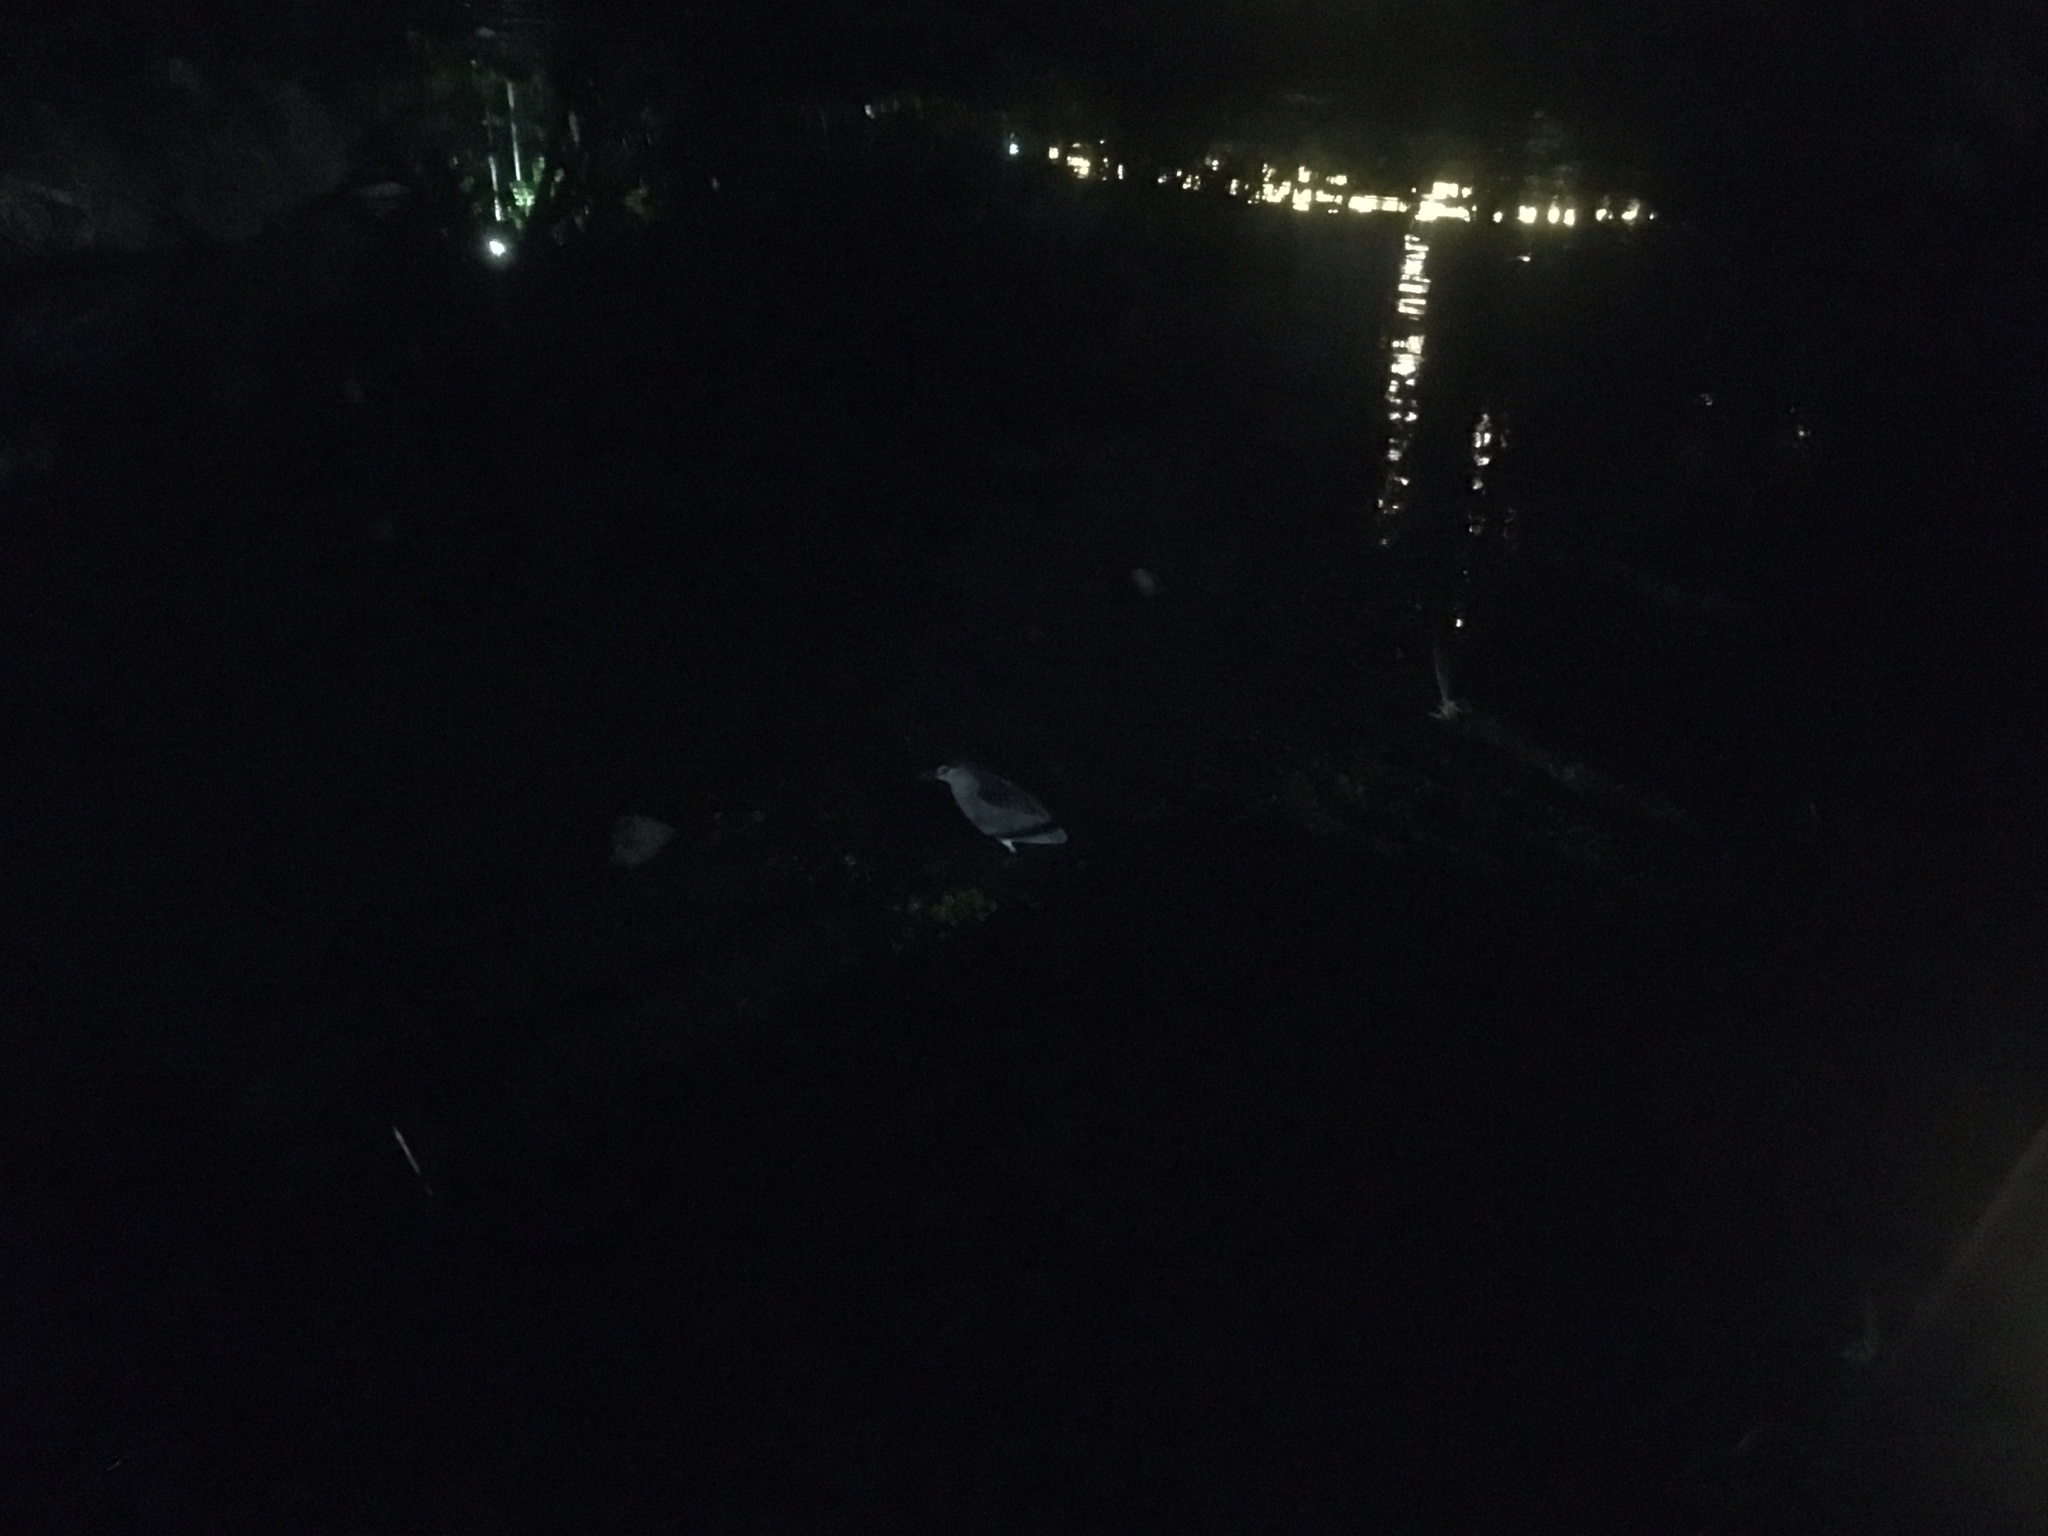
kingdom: Animalia
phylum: Chordata
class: Aves
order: Pelecaniformes
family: Ardeidae
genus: Nycticorax
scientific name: Nycticorax nycticorax
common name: Black-crowned night heron
